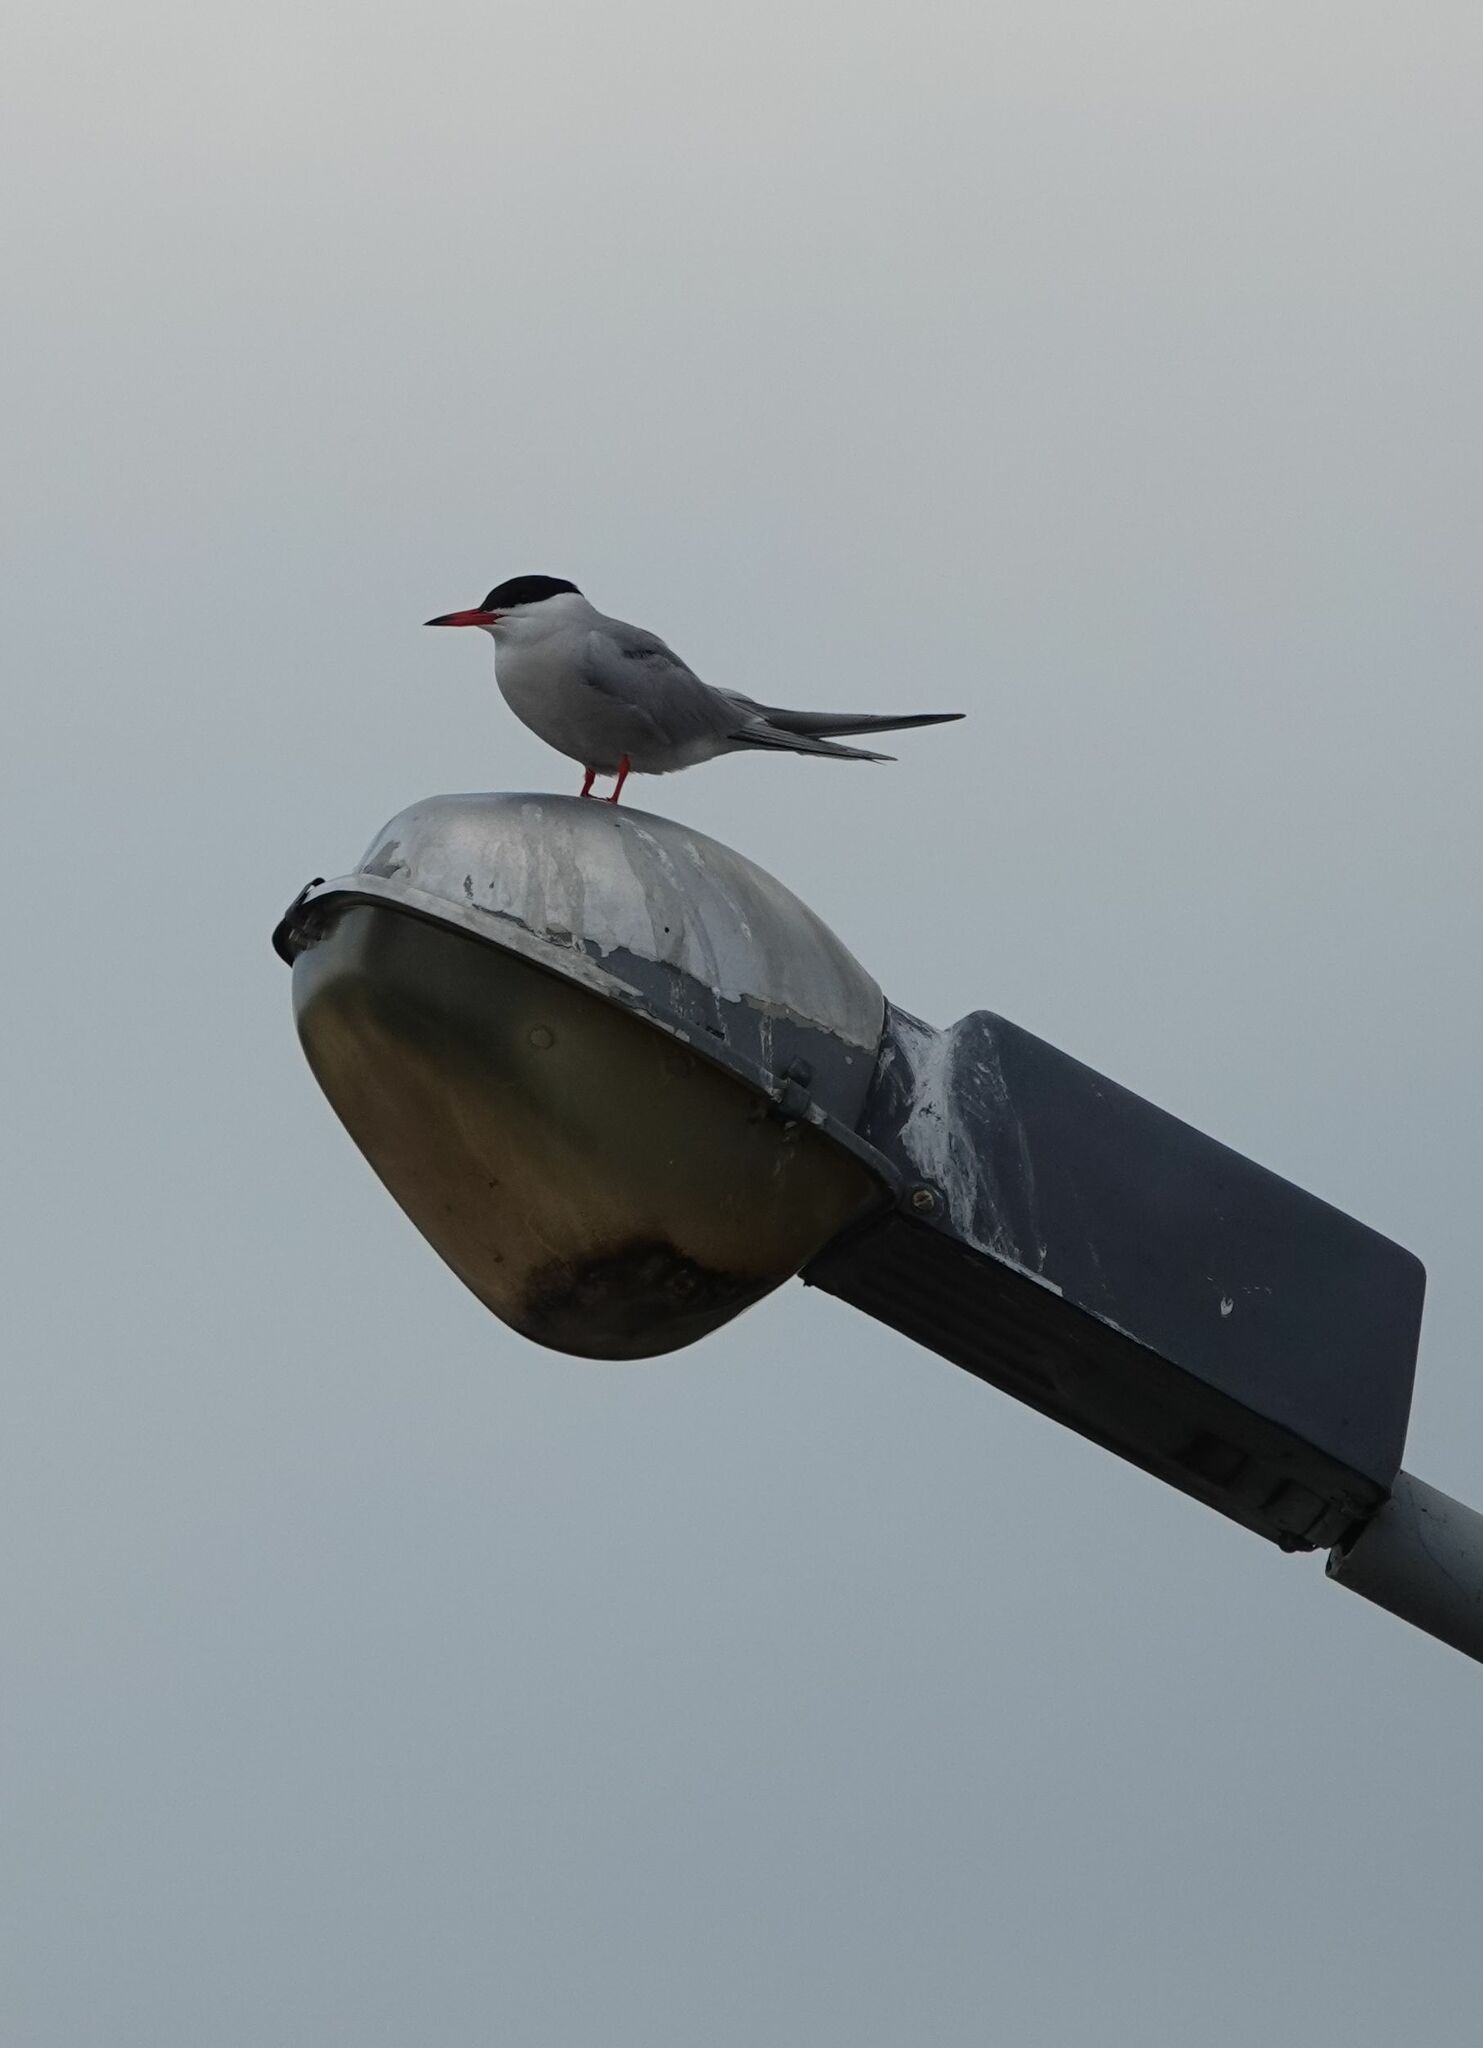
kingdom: Animalia
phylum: Chordata
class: Aves
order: Charadriiformes
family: Laridae
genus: Sterna
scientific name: Sterna hirundo
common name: Common tern
